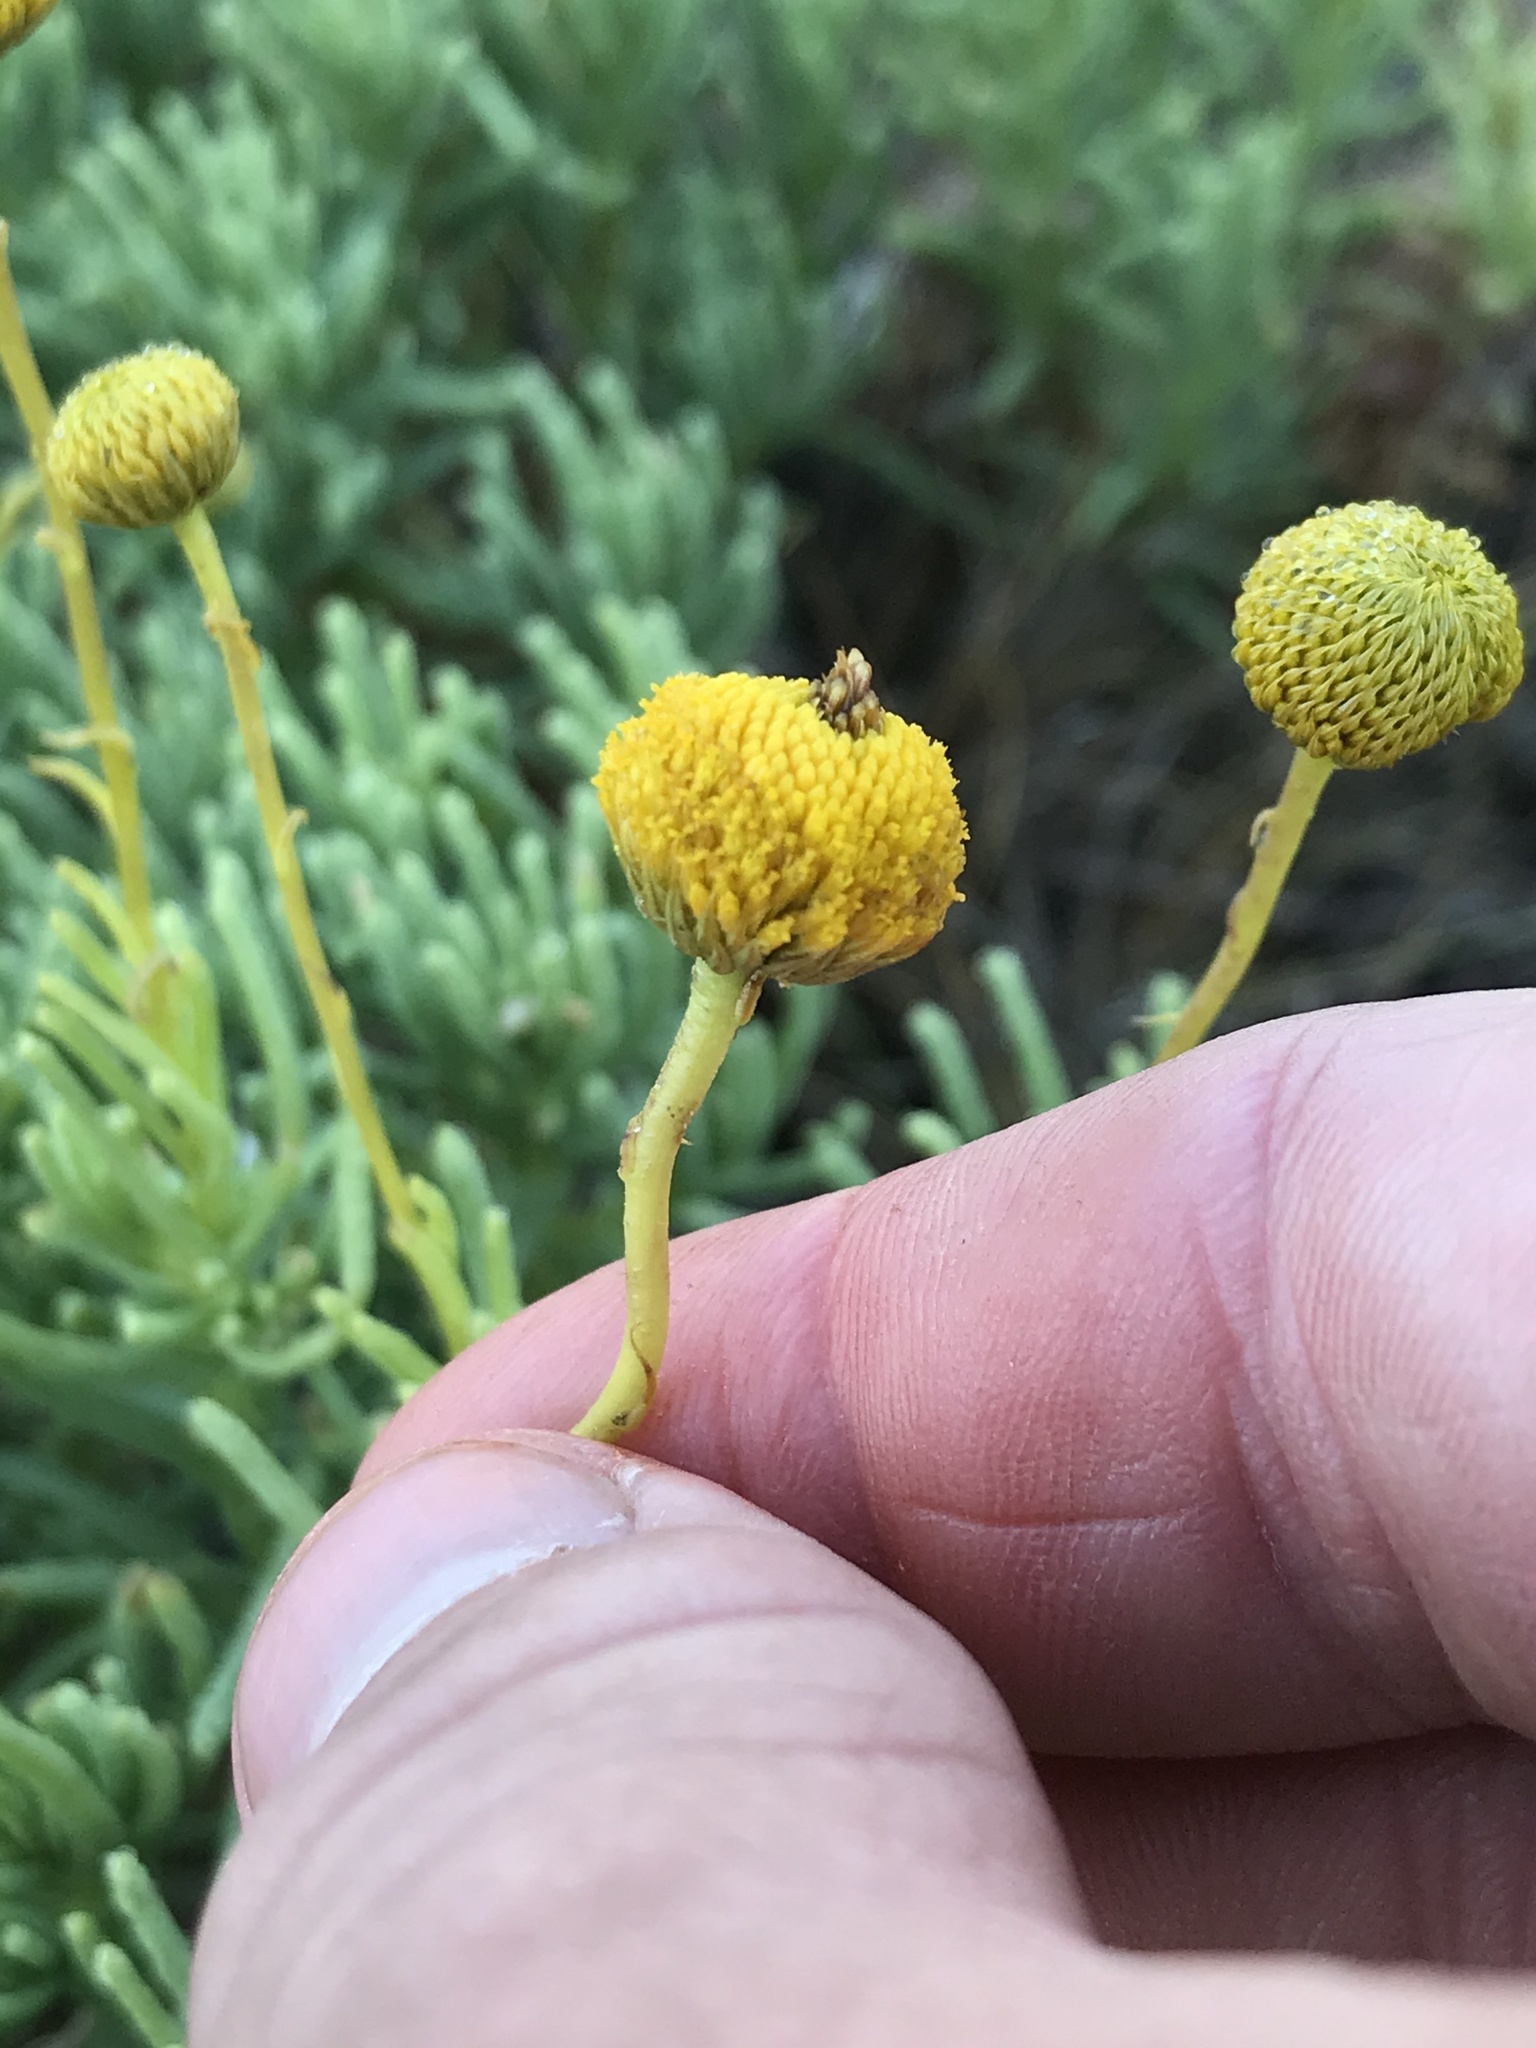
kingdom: Plantae
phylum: Tracheophyta
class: Magnoliopsida
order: Asterales
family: Asteraceae
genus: Varilla
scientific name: Varilla texana
